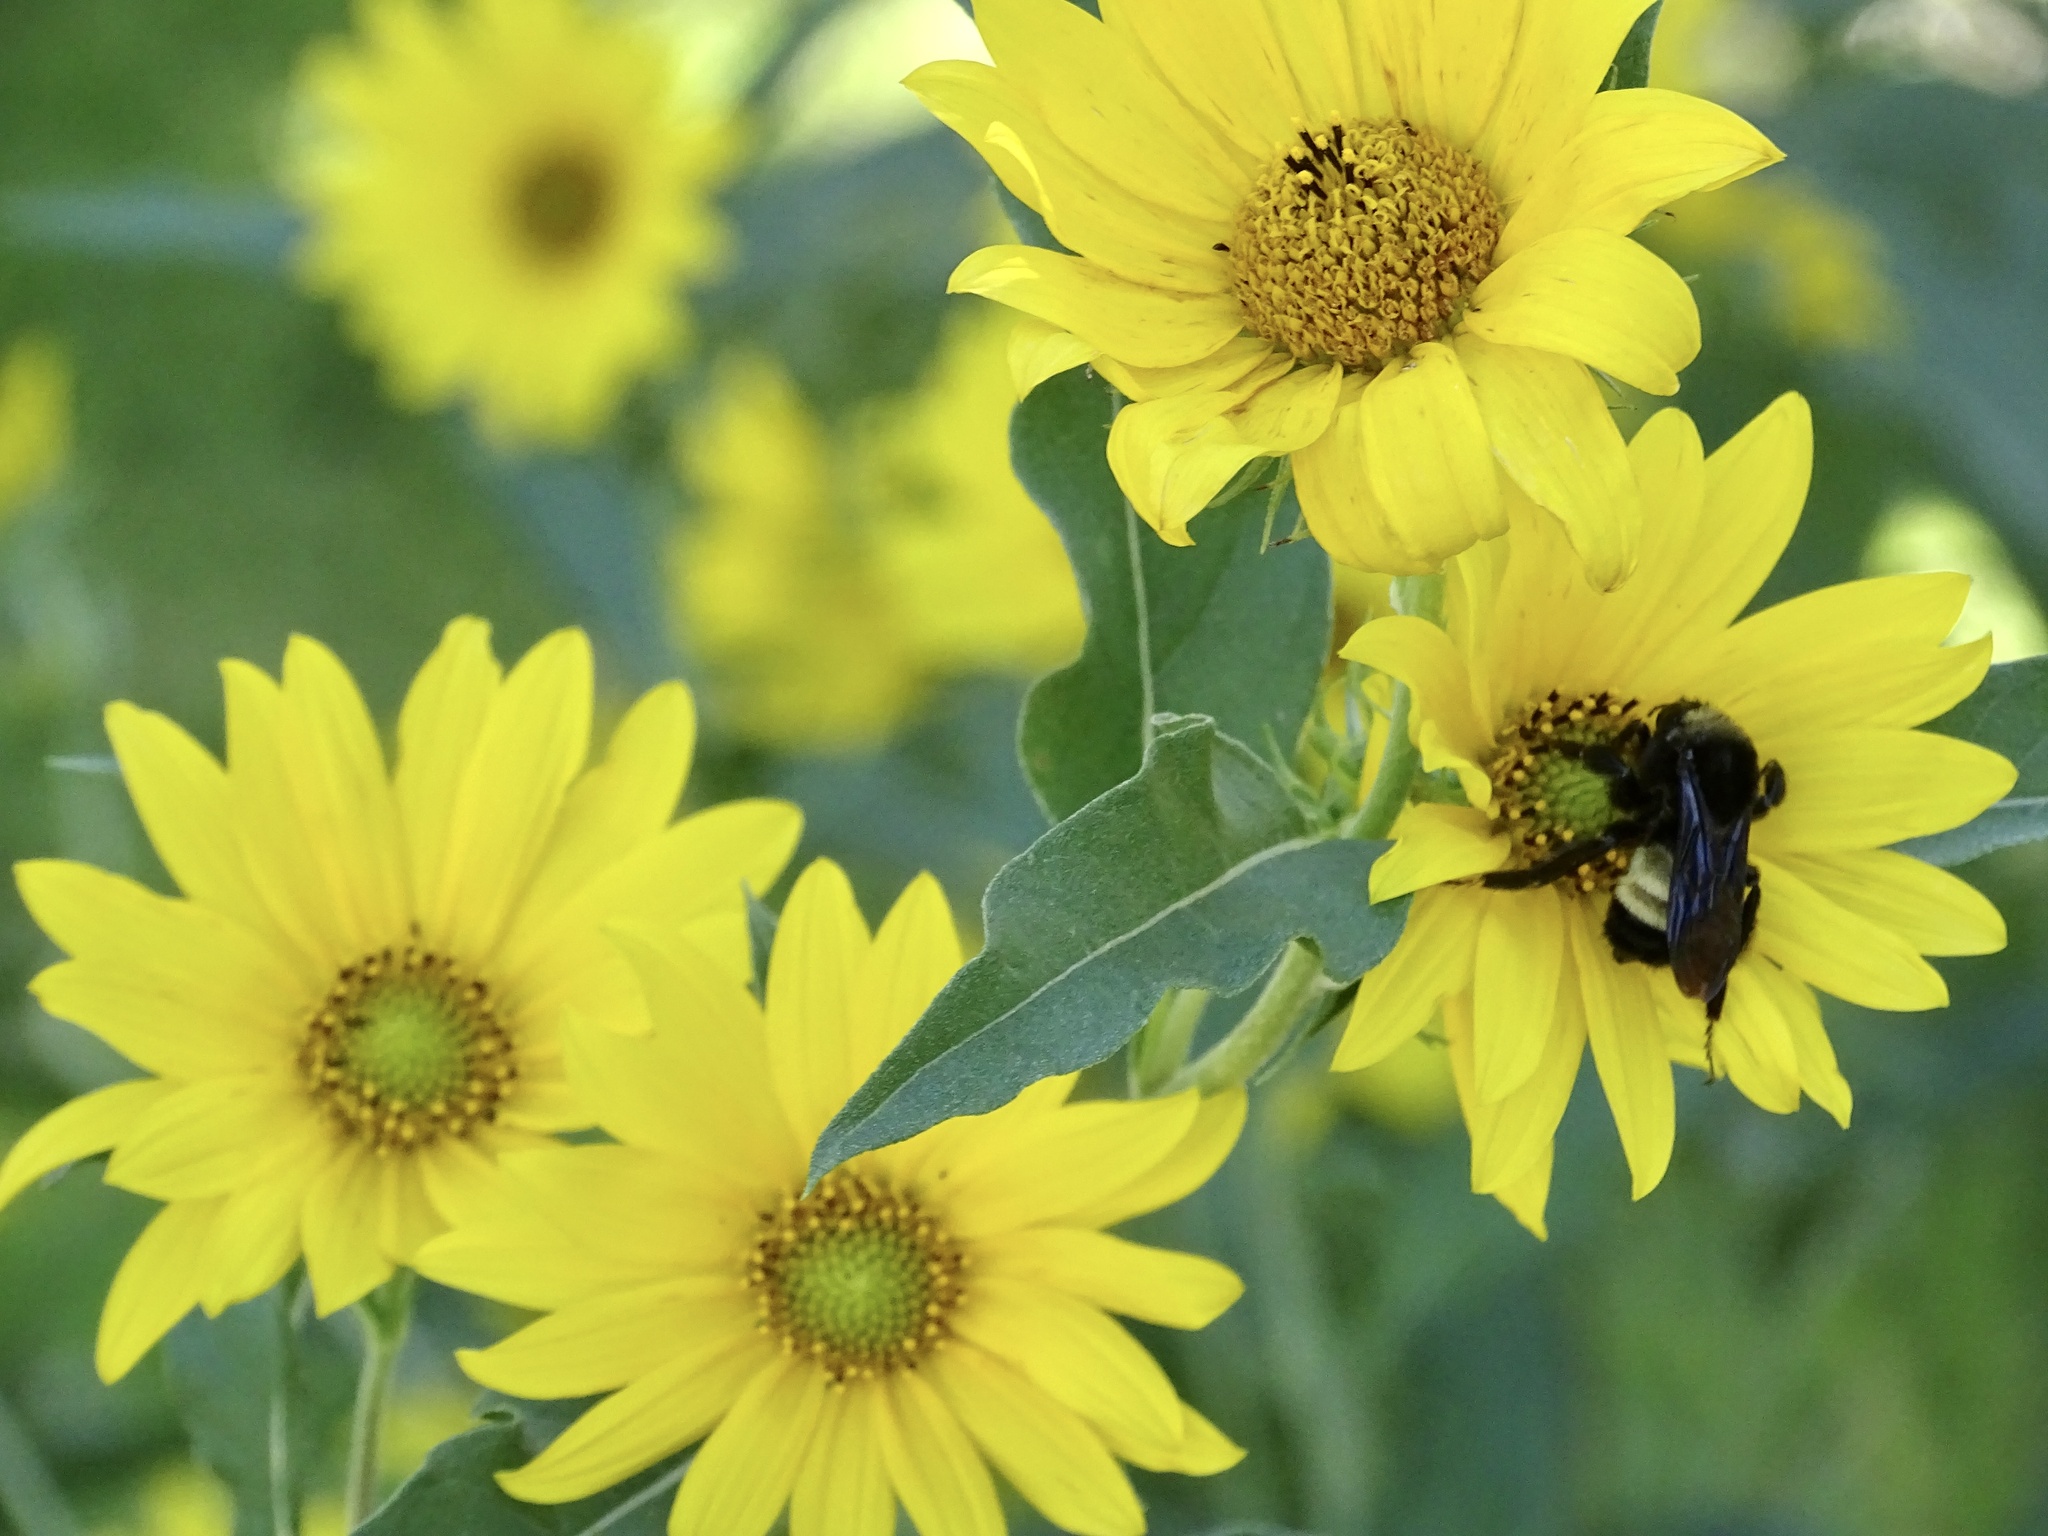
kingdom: Animalia
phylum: Arthropoda
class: Insecta
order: Hymenoptera
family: Apidae
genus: Bombus
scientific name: Bombus pensylvanicus
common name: Bumble bee
